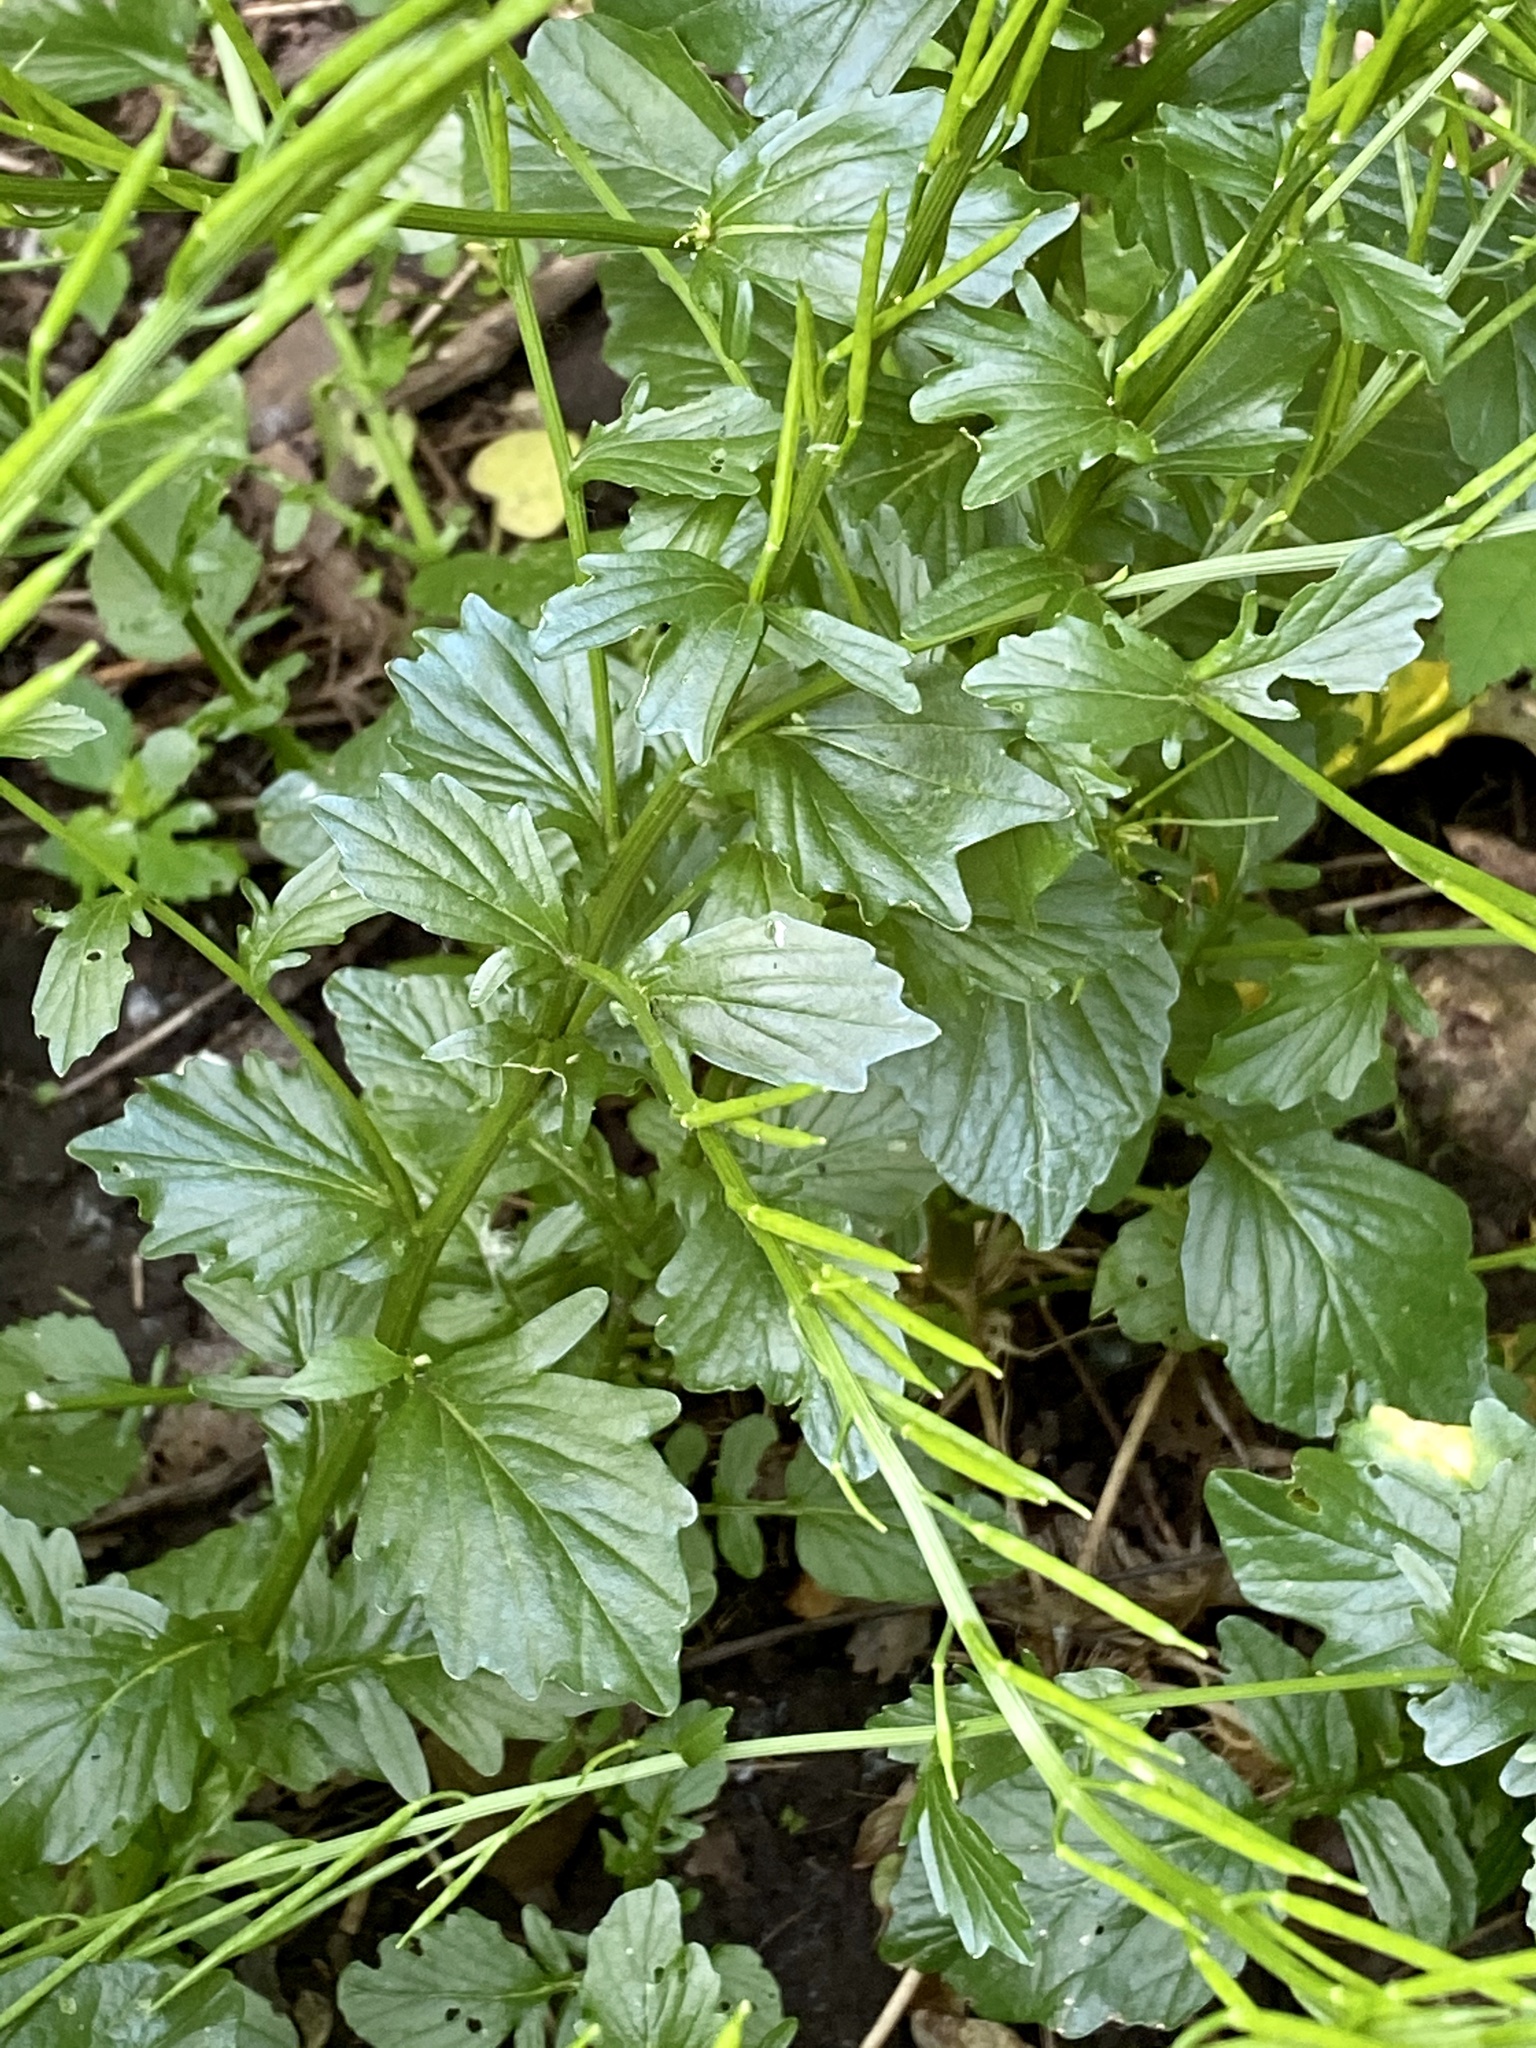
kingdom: Plantae
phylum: Tracheophyta
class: Magnoliopsida
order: Brassicales
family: Brassicaceae
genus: Barbarea
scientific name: Barbarea vulgaris
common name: Cressy-greens
